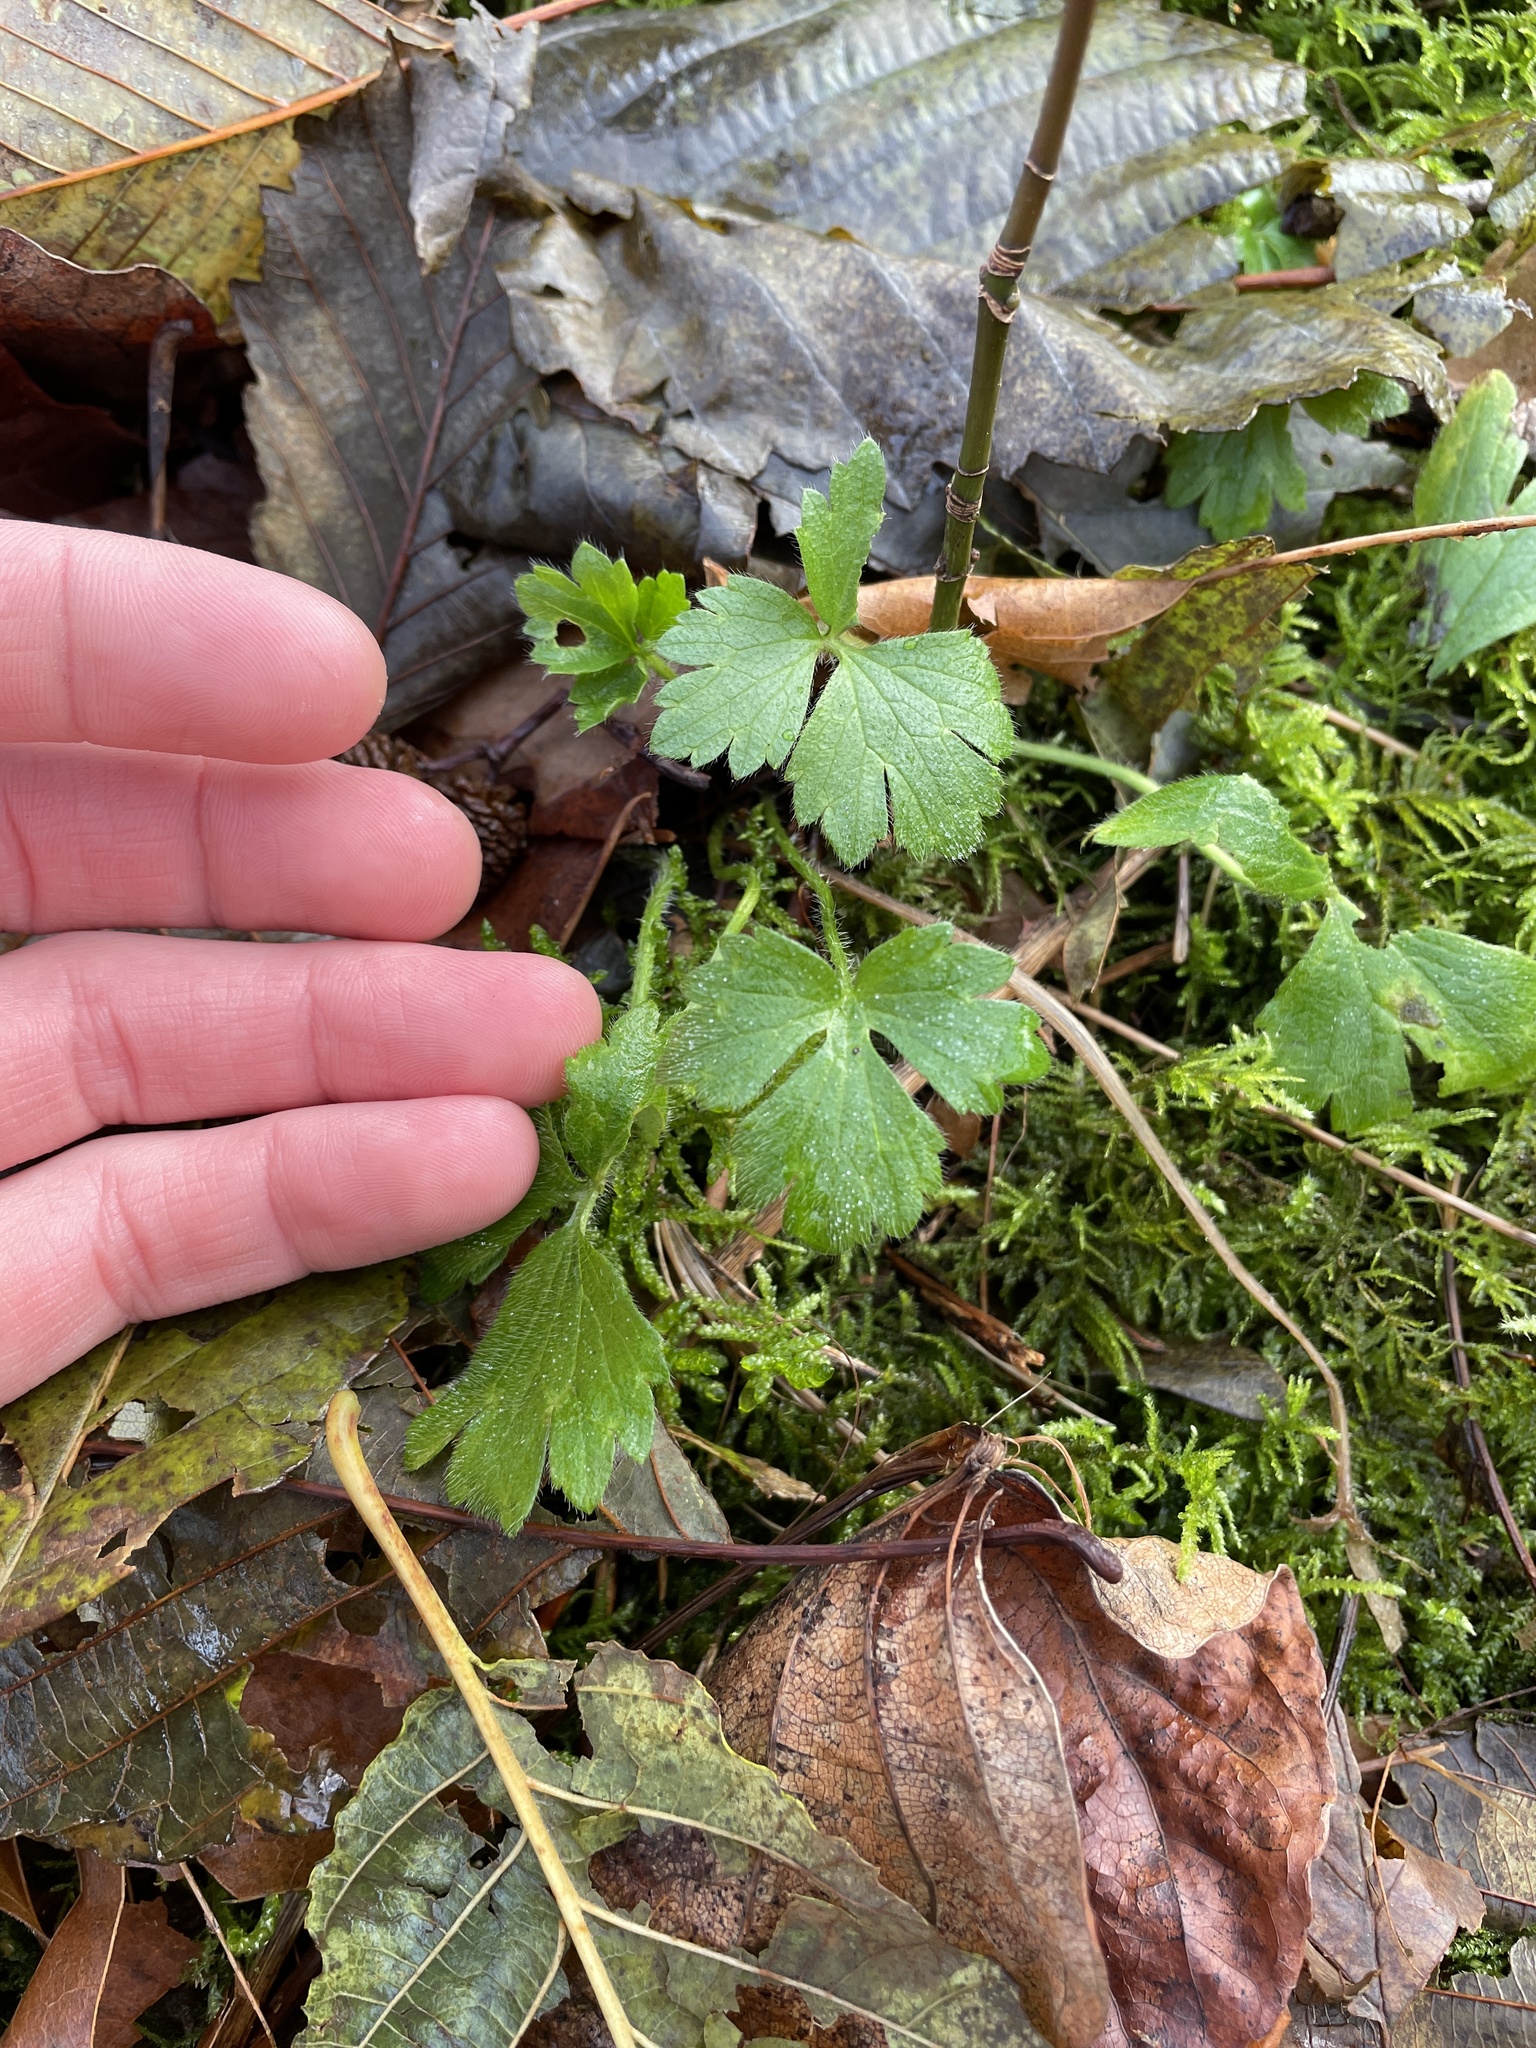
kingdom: Plantae
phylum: Tracheophyta
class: Magnoliopsida
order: Ranunculales
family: Ranunculaceae
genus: Ranunculus
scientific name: Ranunculus repens
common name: Creeping buttercup
